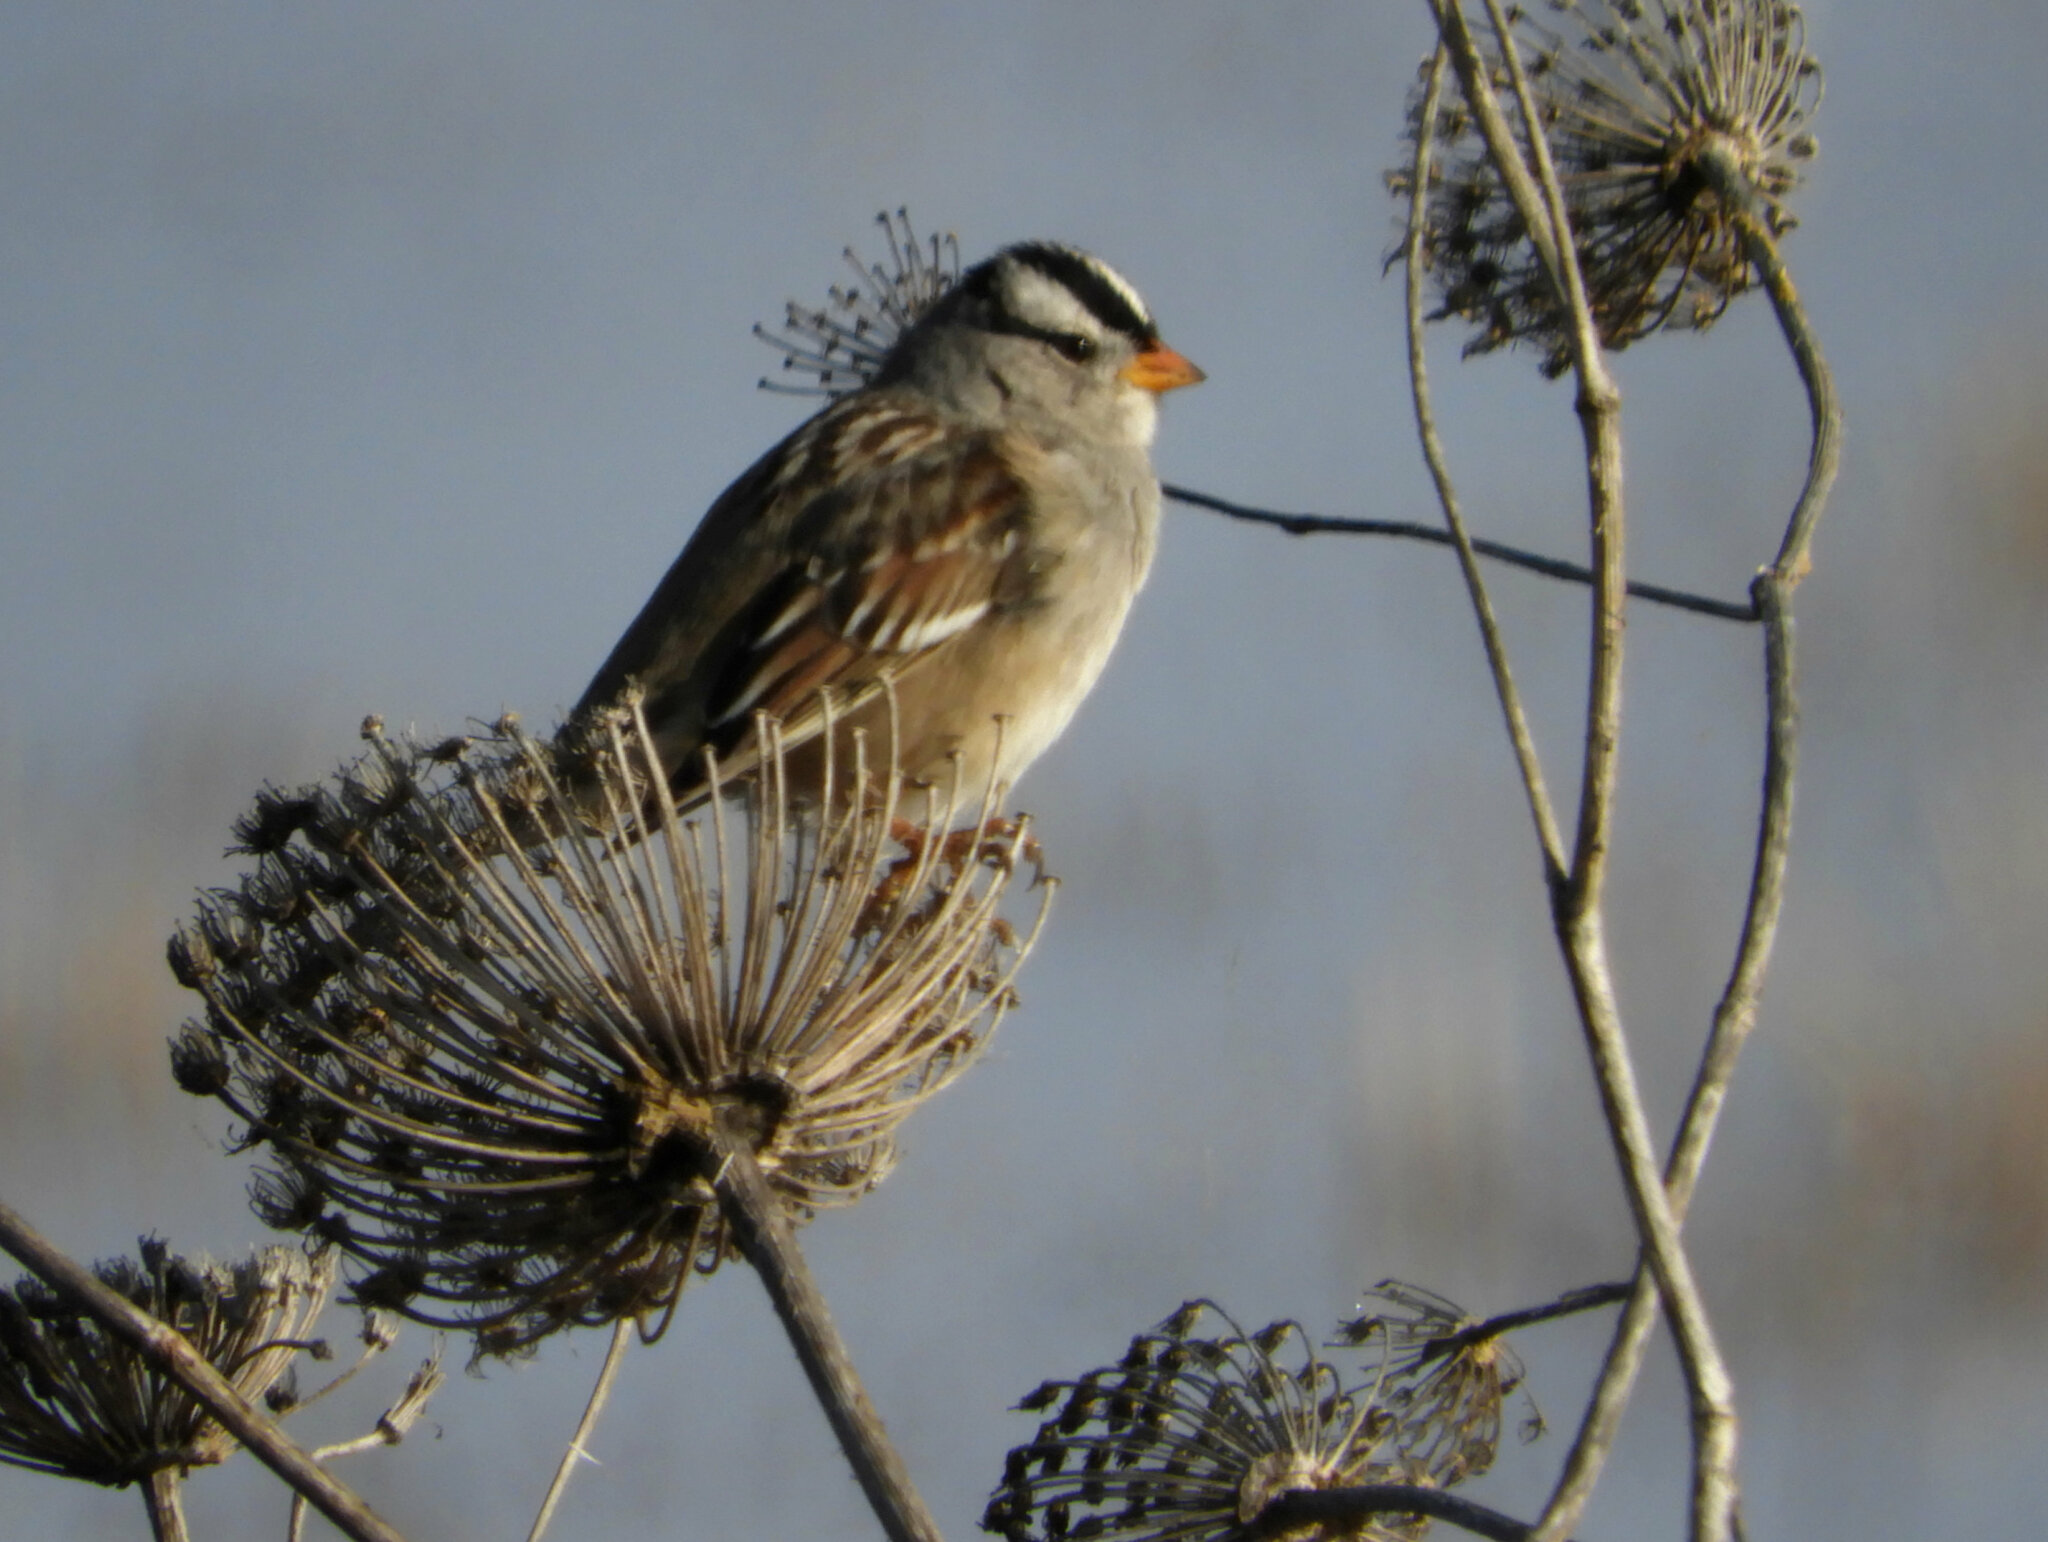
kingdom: Animalia
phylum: Chordata
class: Aves
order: Passeriformes
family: Passerellidae
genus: Zonotrichia
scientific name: Zonotrichia leucophrys
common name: White-crowned sparrow
